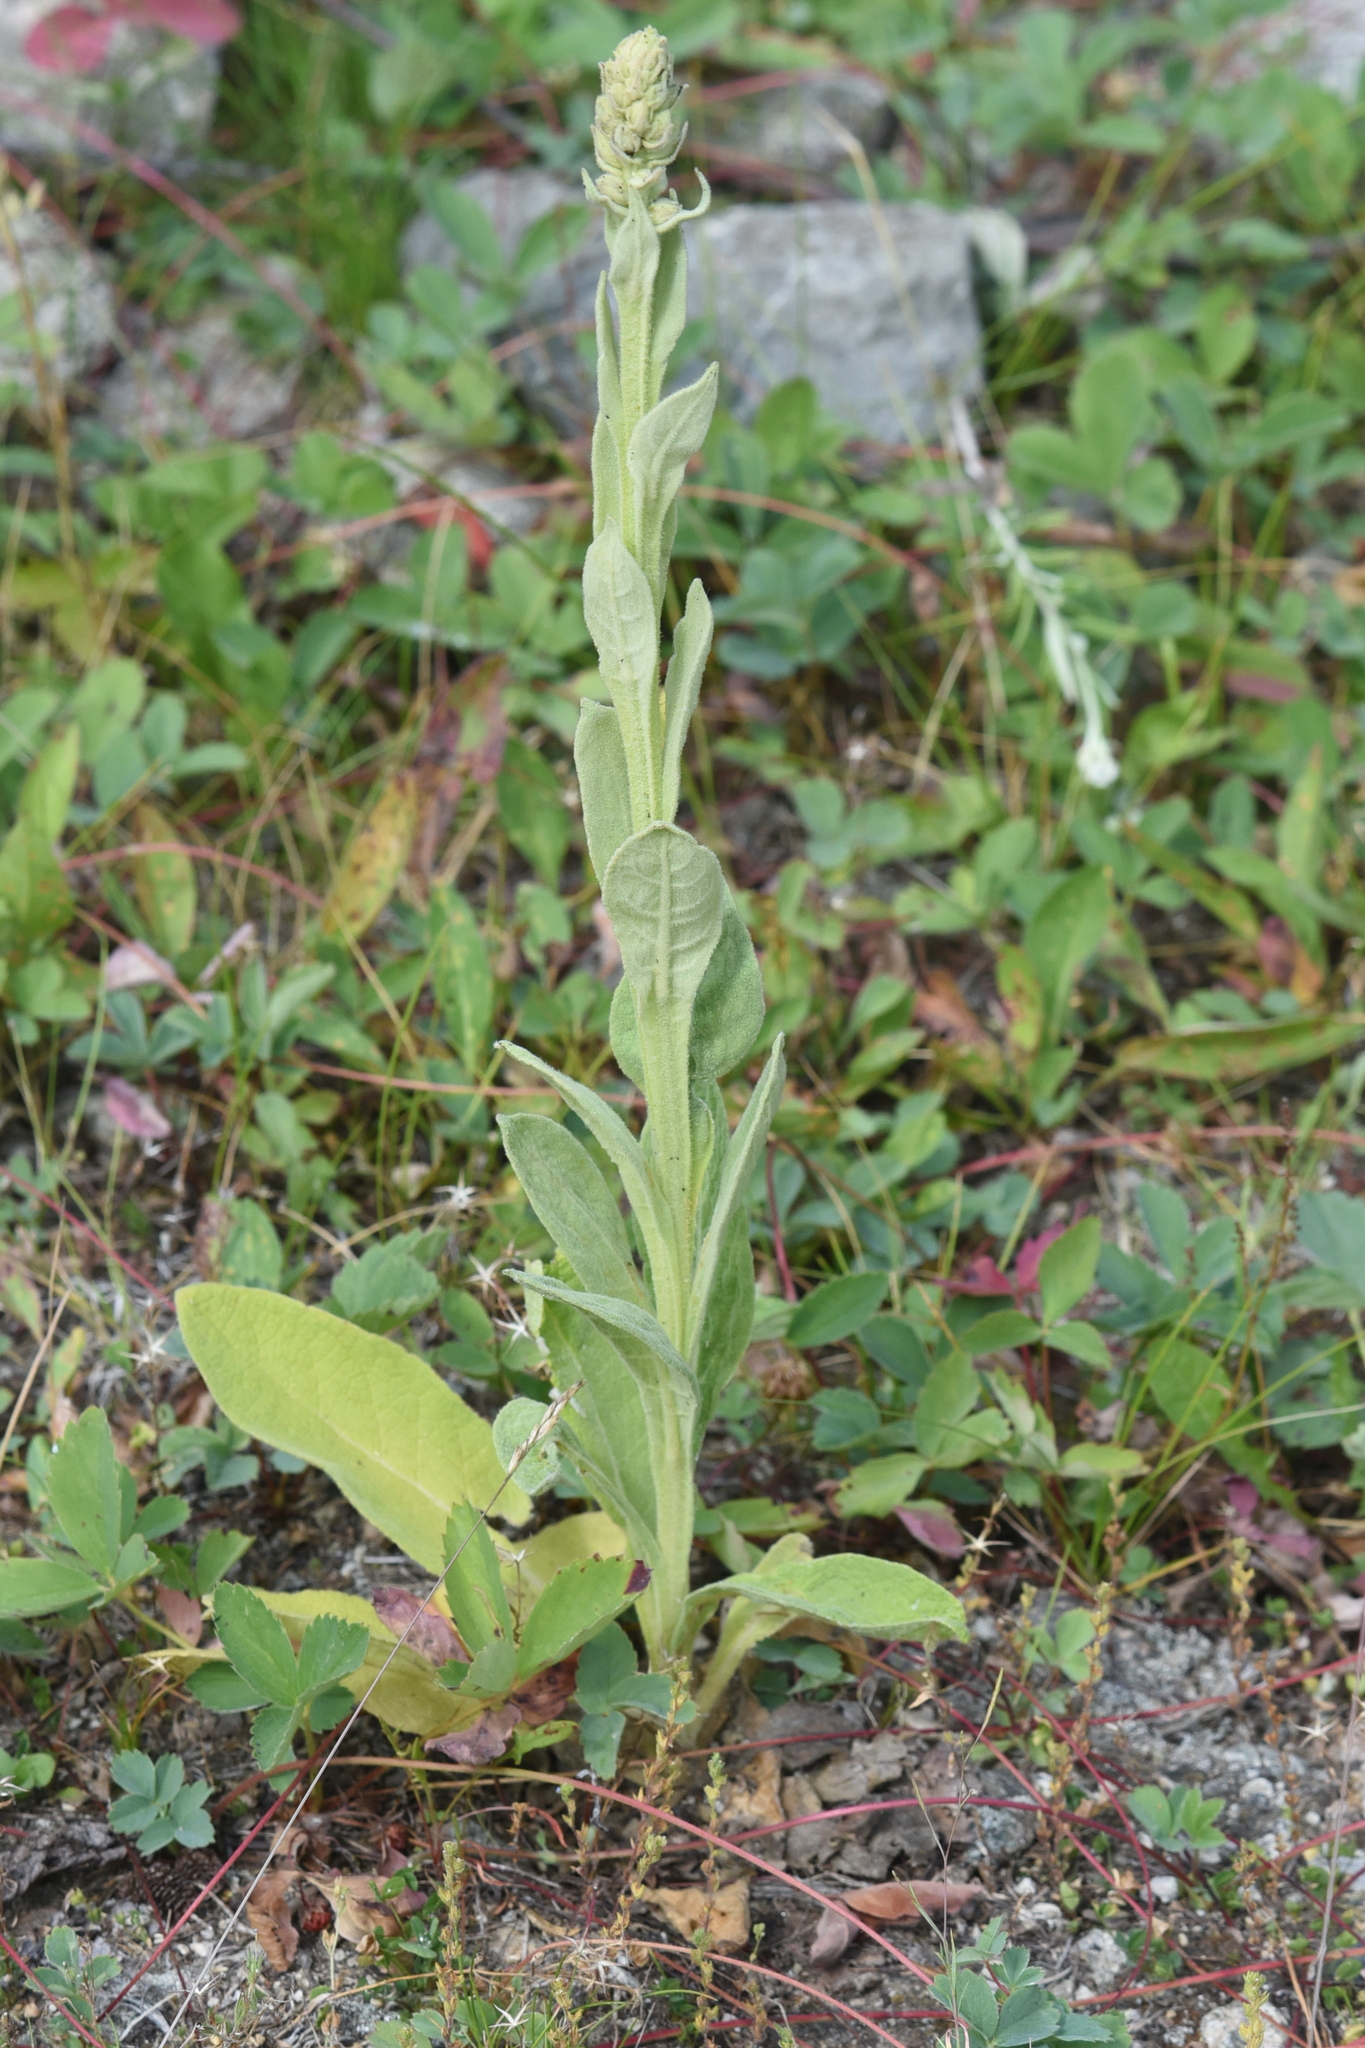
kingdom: Plantae
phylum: Tracheophyta
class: Magnoliopsida
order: Lamiales
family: Scrophulariaceae
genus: Verbascum
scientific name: Verbascum thapsus
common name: Common mullein
